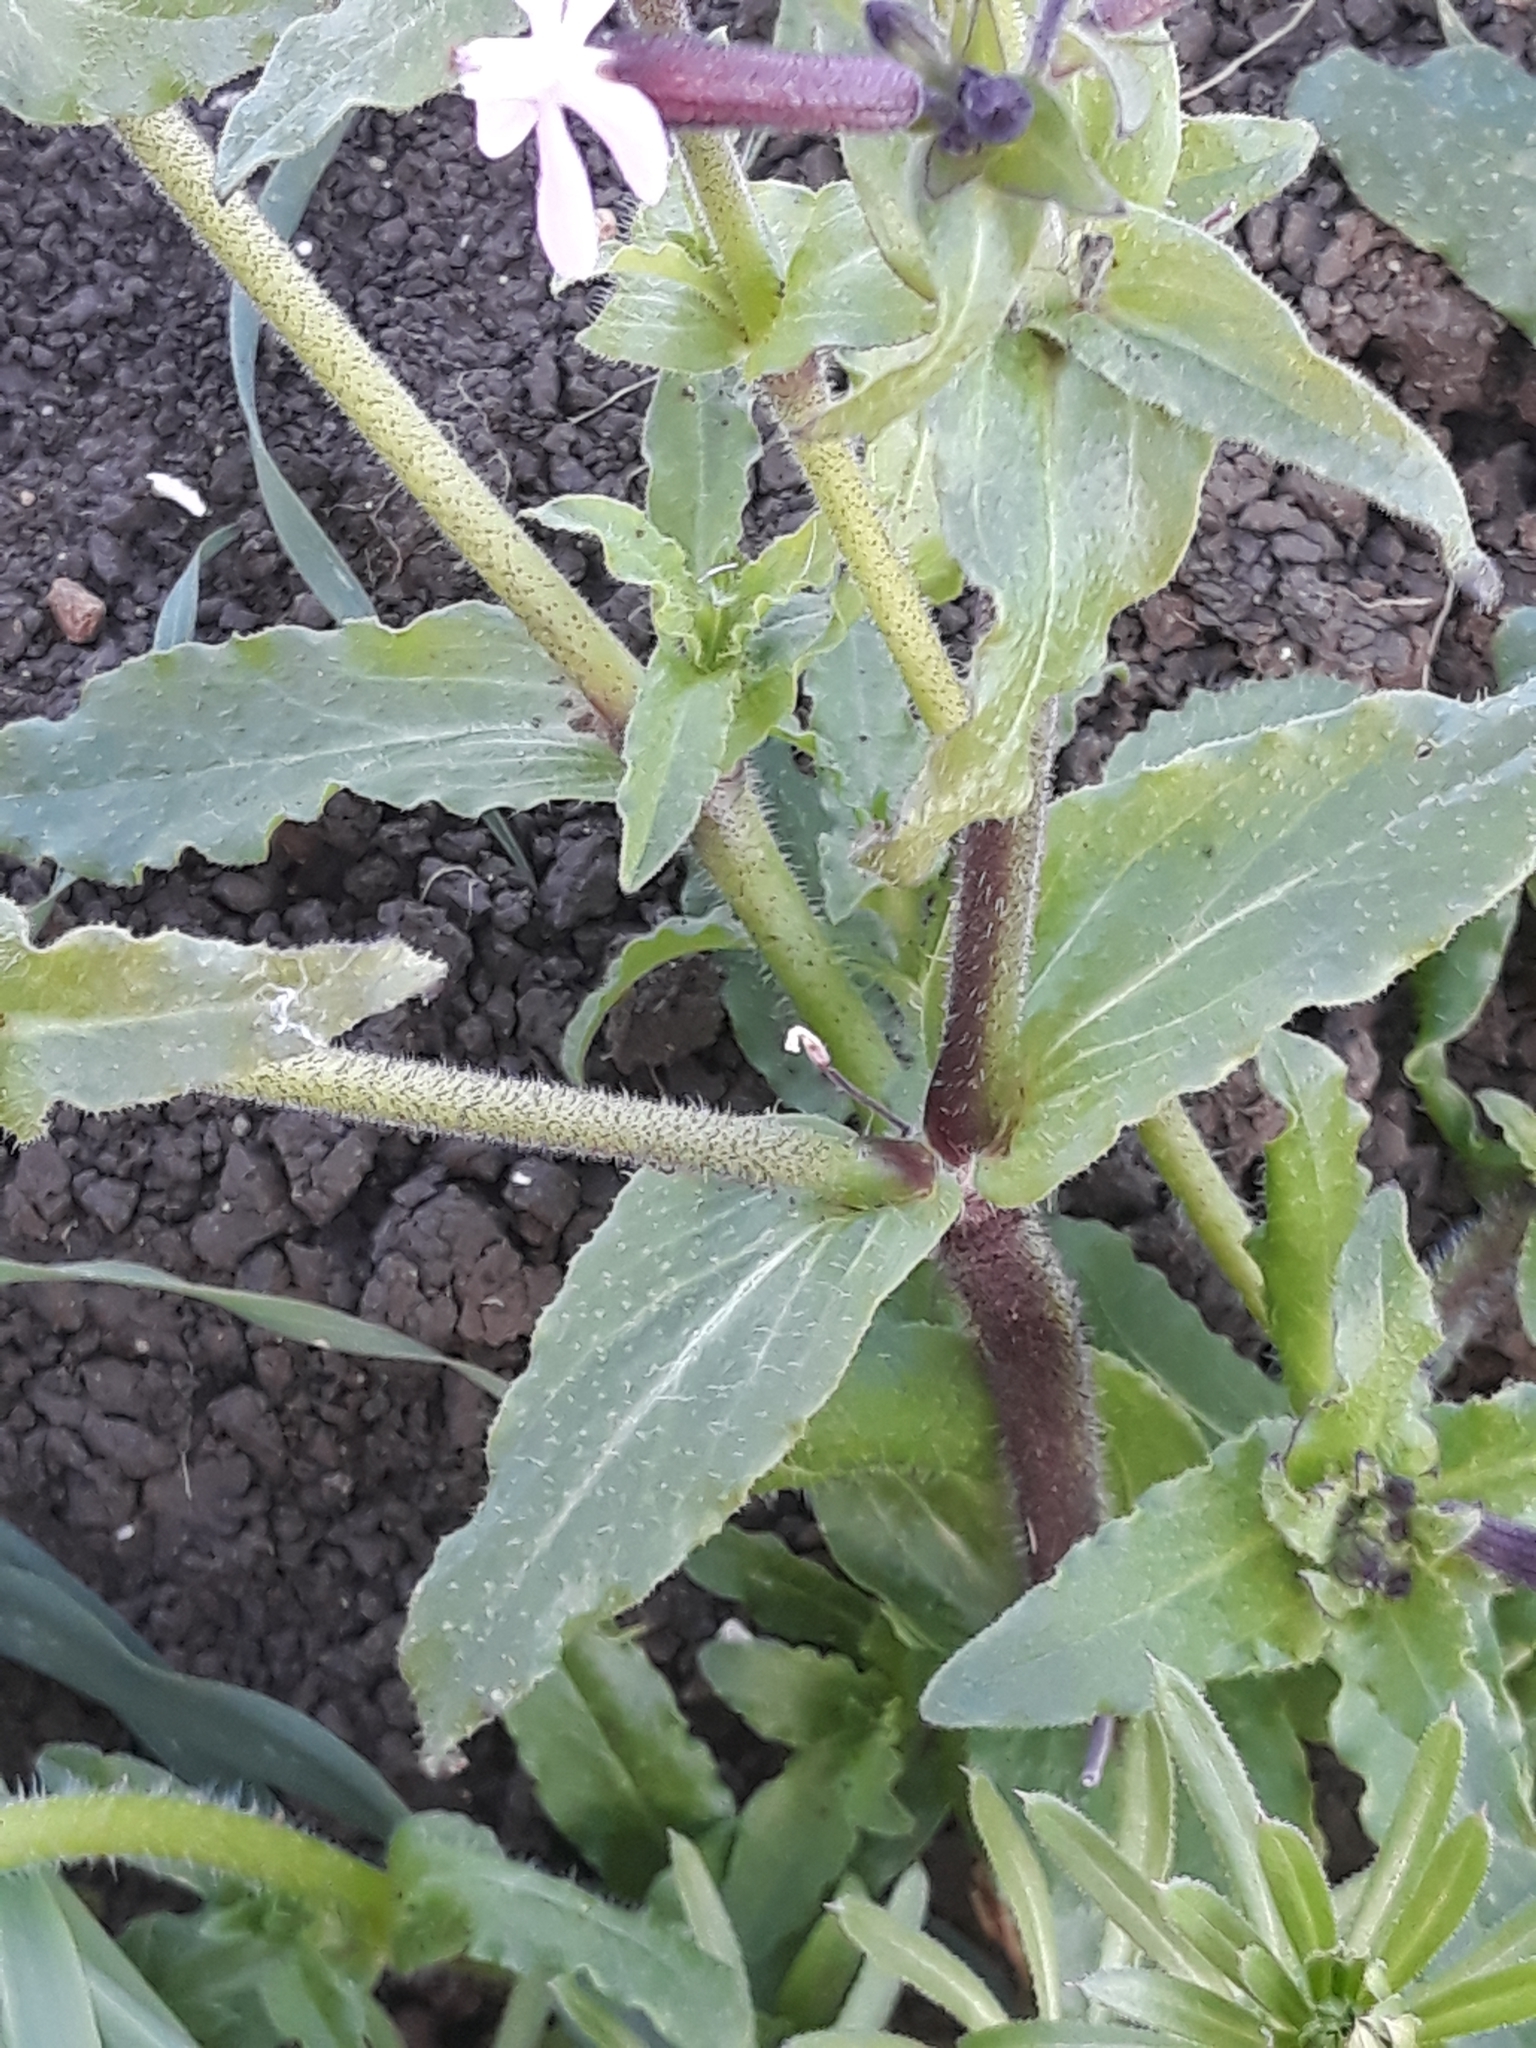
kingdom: Plantae
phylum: Tracheophyta
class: Magnoliopsida
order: Caryophyllales
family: Caryophyllaceae
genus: Silene
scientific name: Silene fuscata
